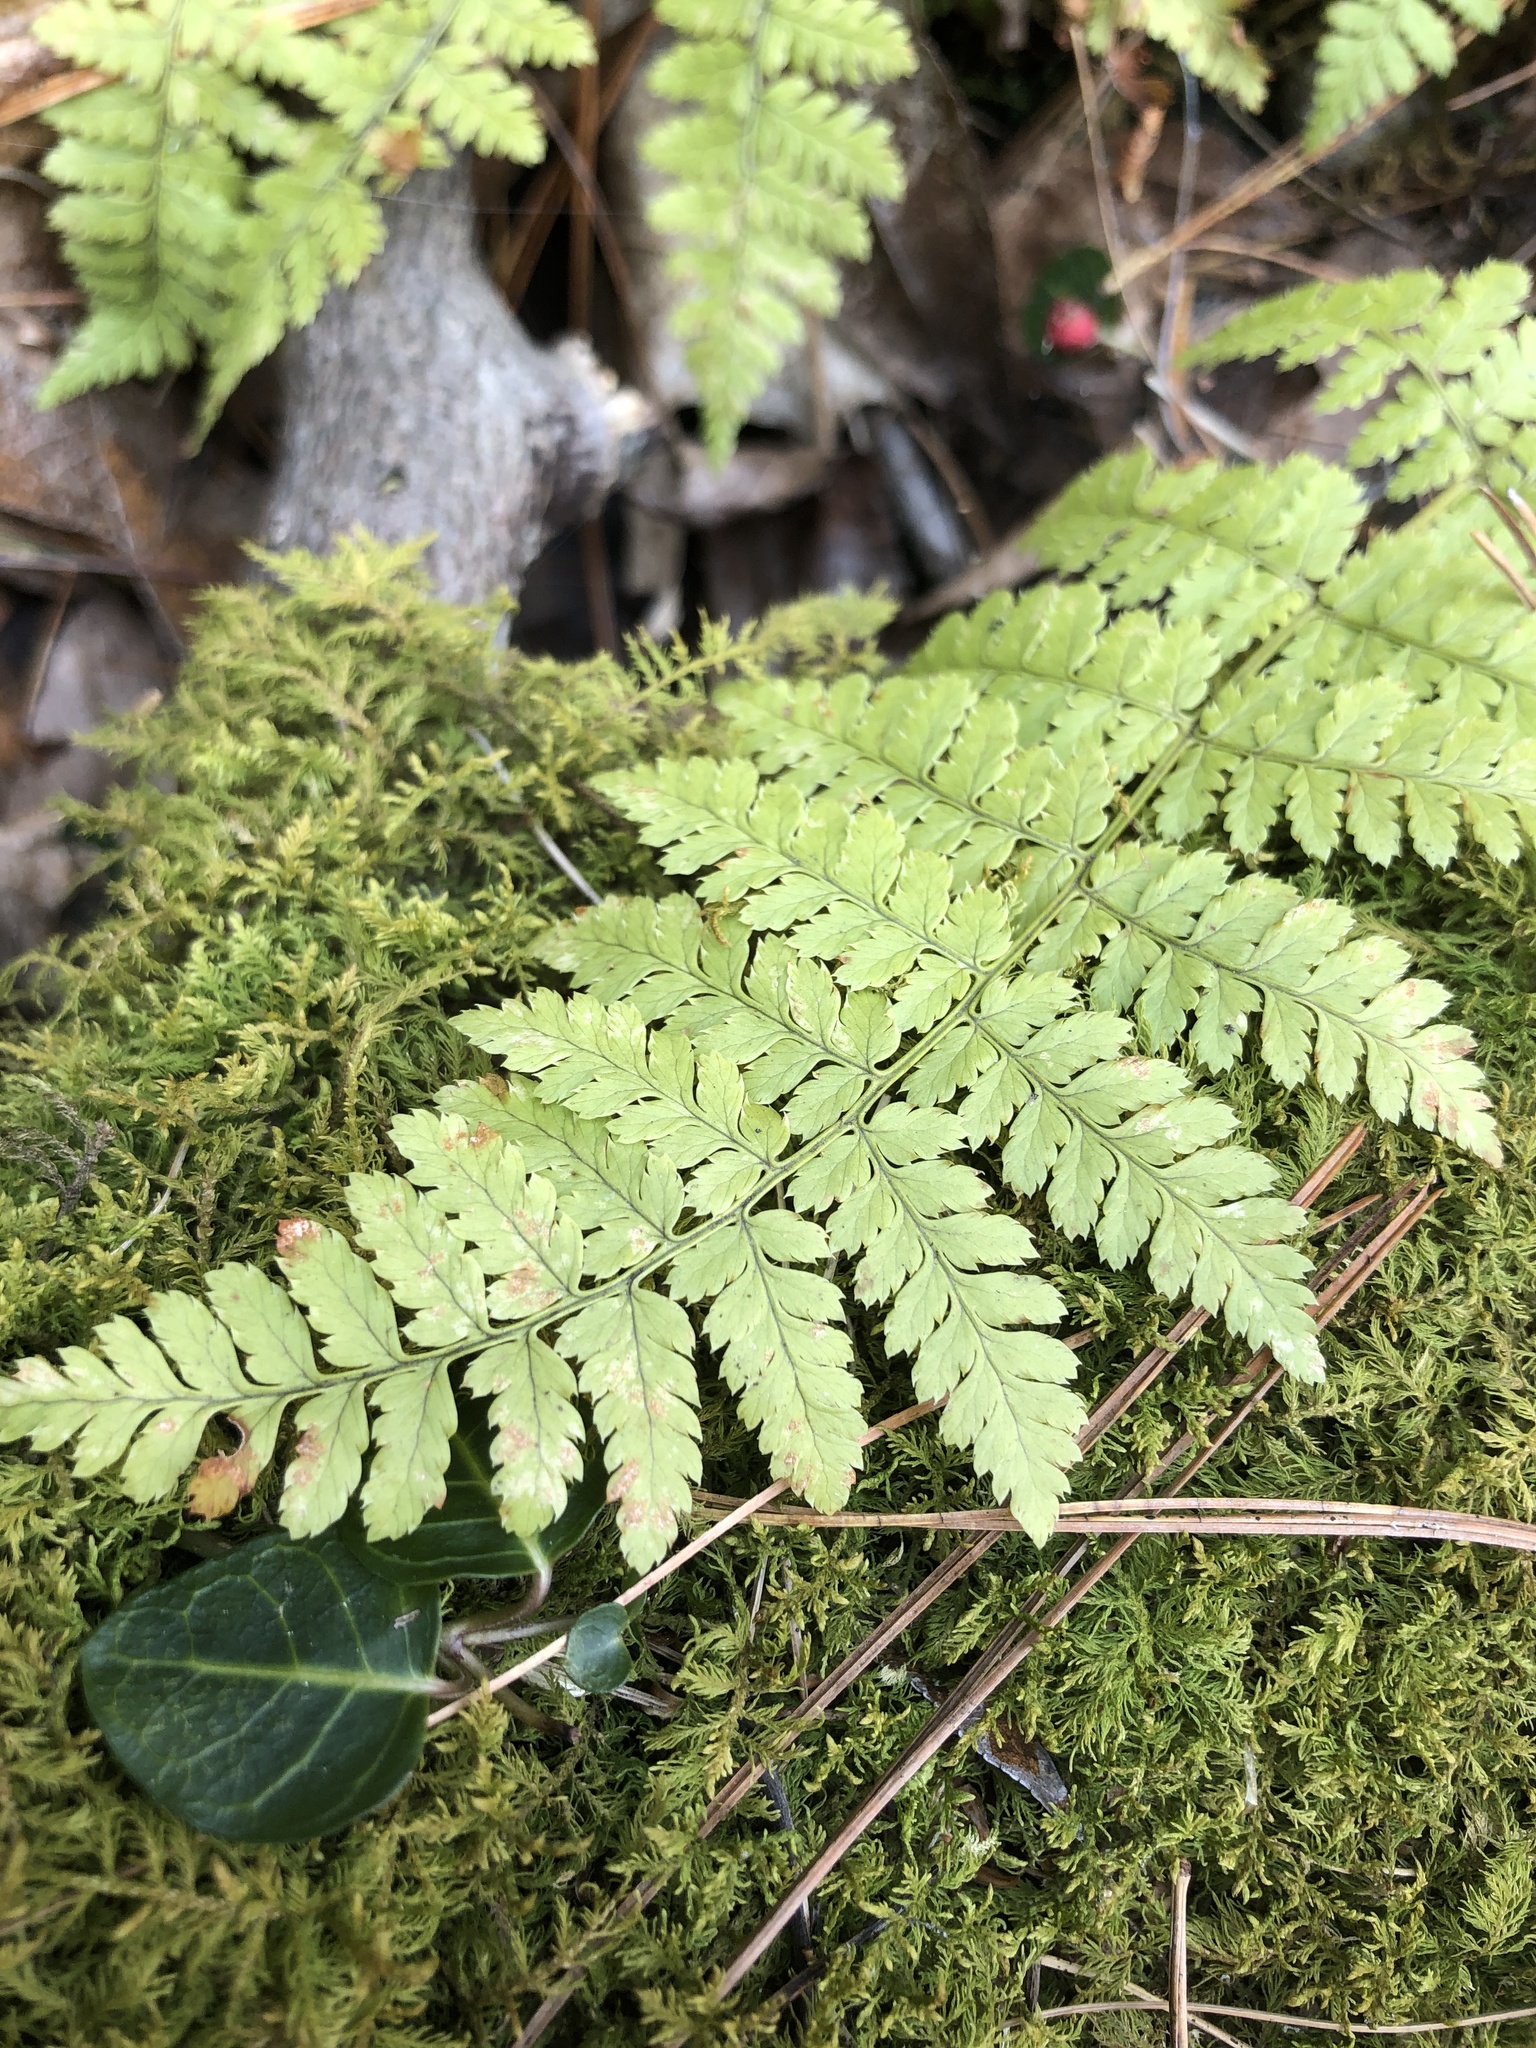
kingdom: Plantae
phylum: Tracheophyta
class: Polypodiopsida
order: Polypodiales
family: Dryopteridaceae
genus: Dryopteris
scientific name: Dryopteris intermedia
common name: Evergreen wood fern
